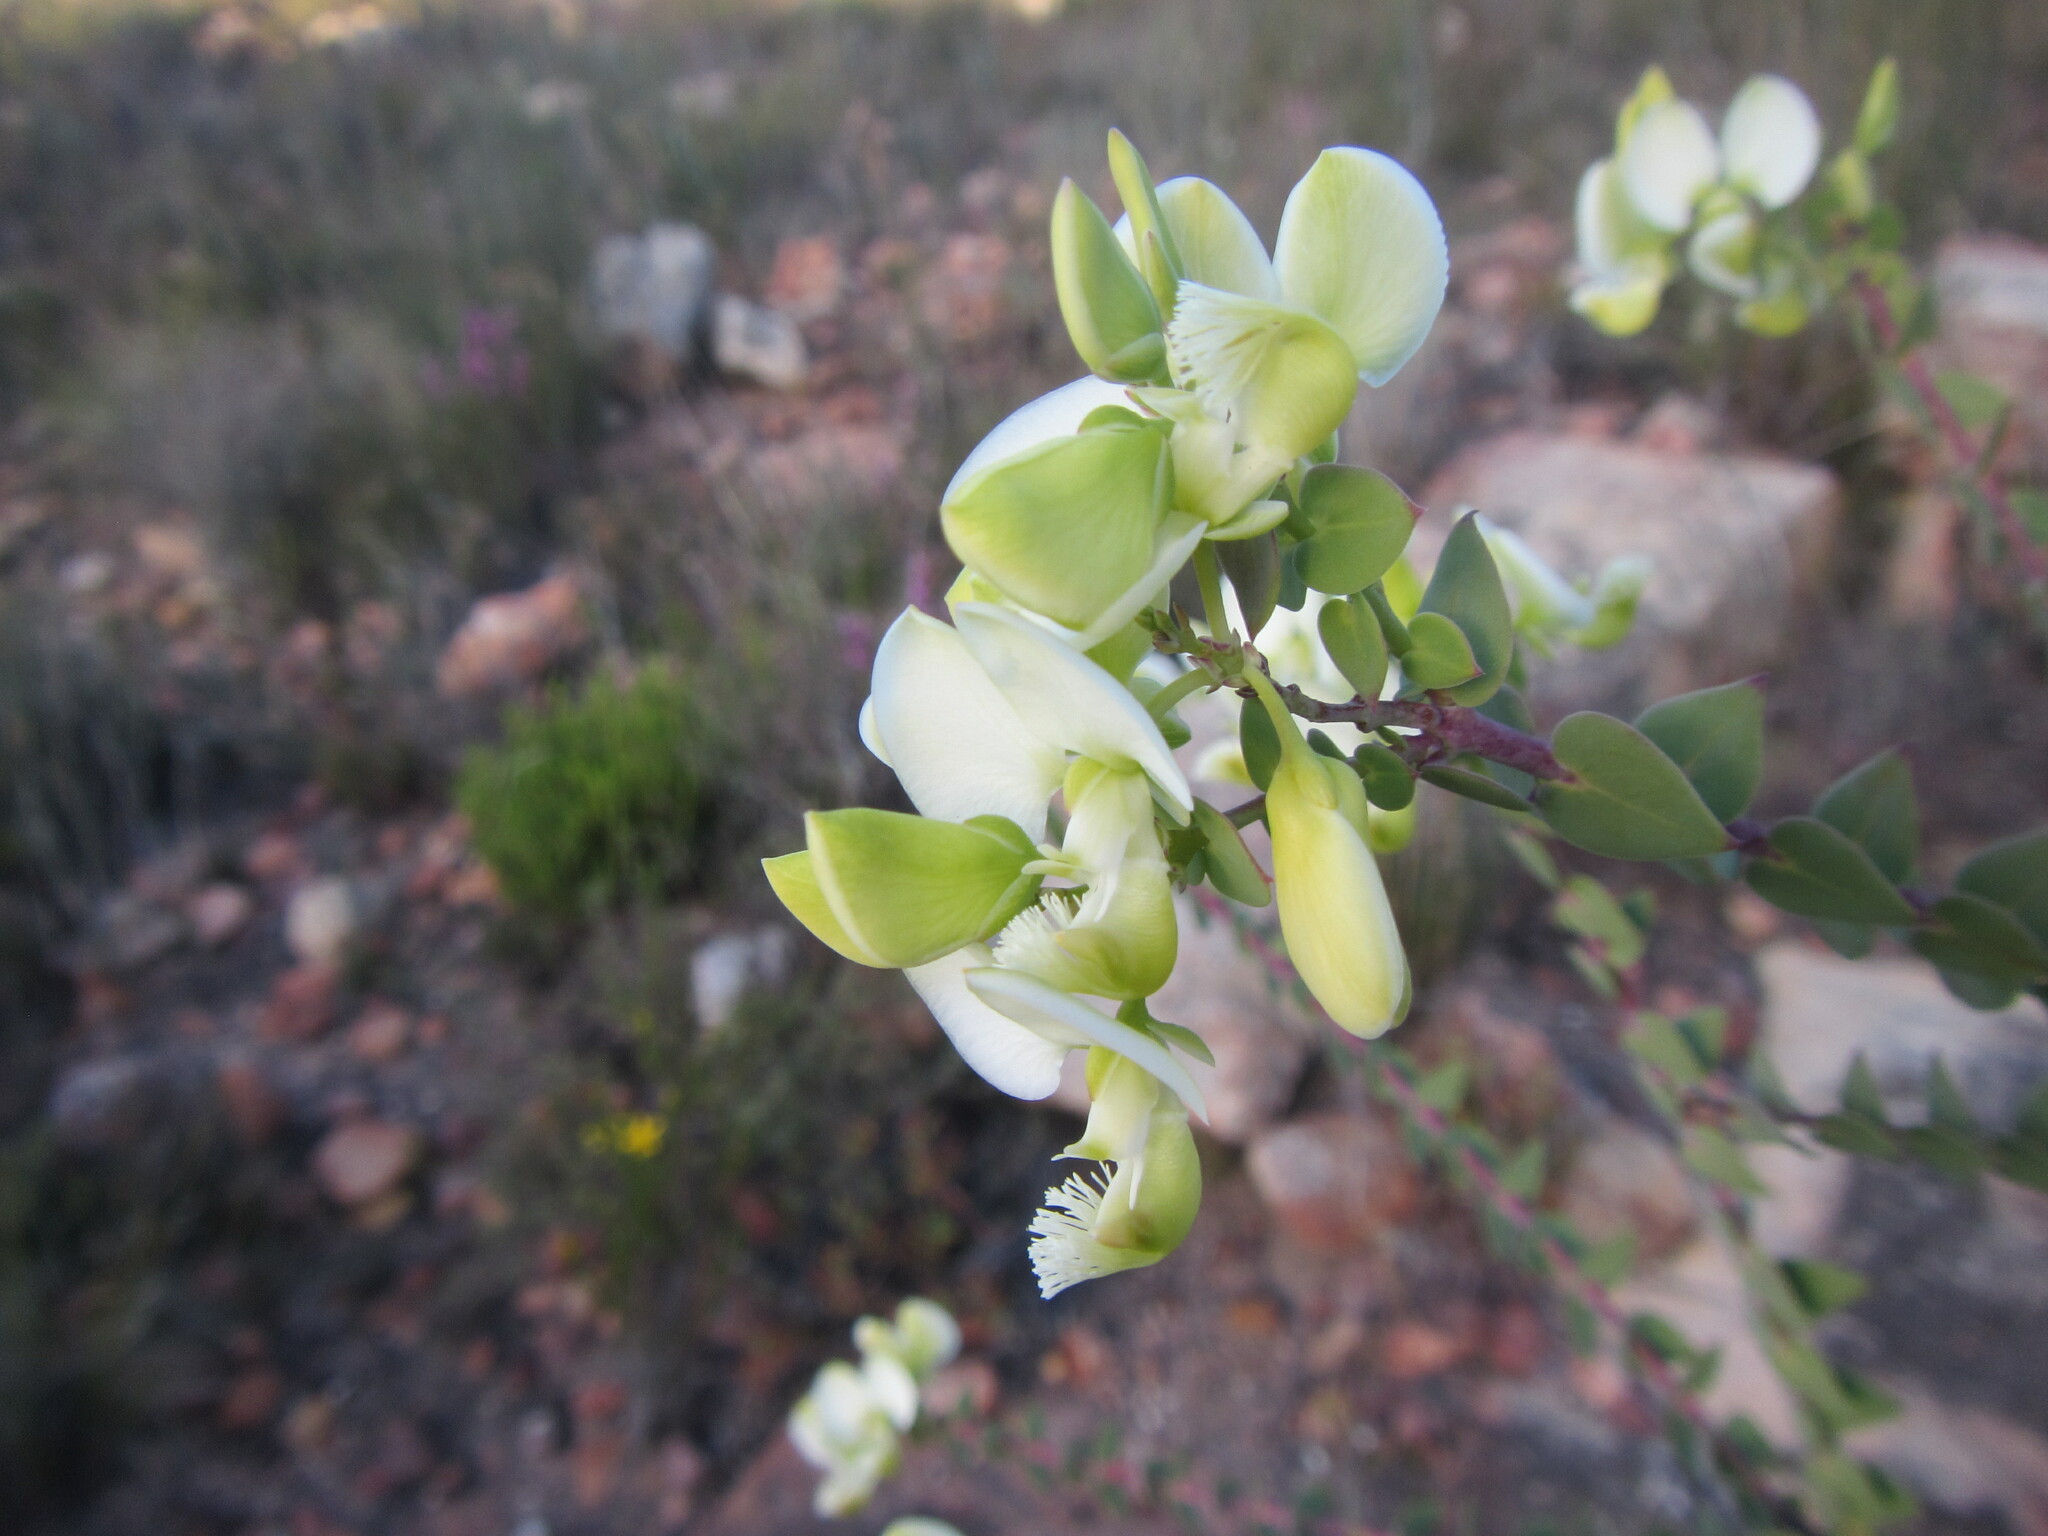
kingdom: Plantae
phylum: Tracheophyta
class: Magnoliopsida
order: Fabales
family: Polygalaceae
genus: Polygala
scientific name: Polygala fruticosa
